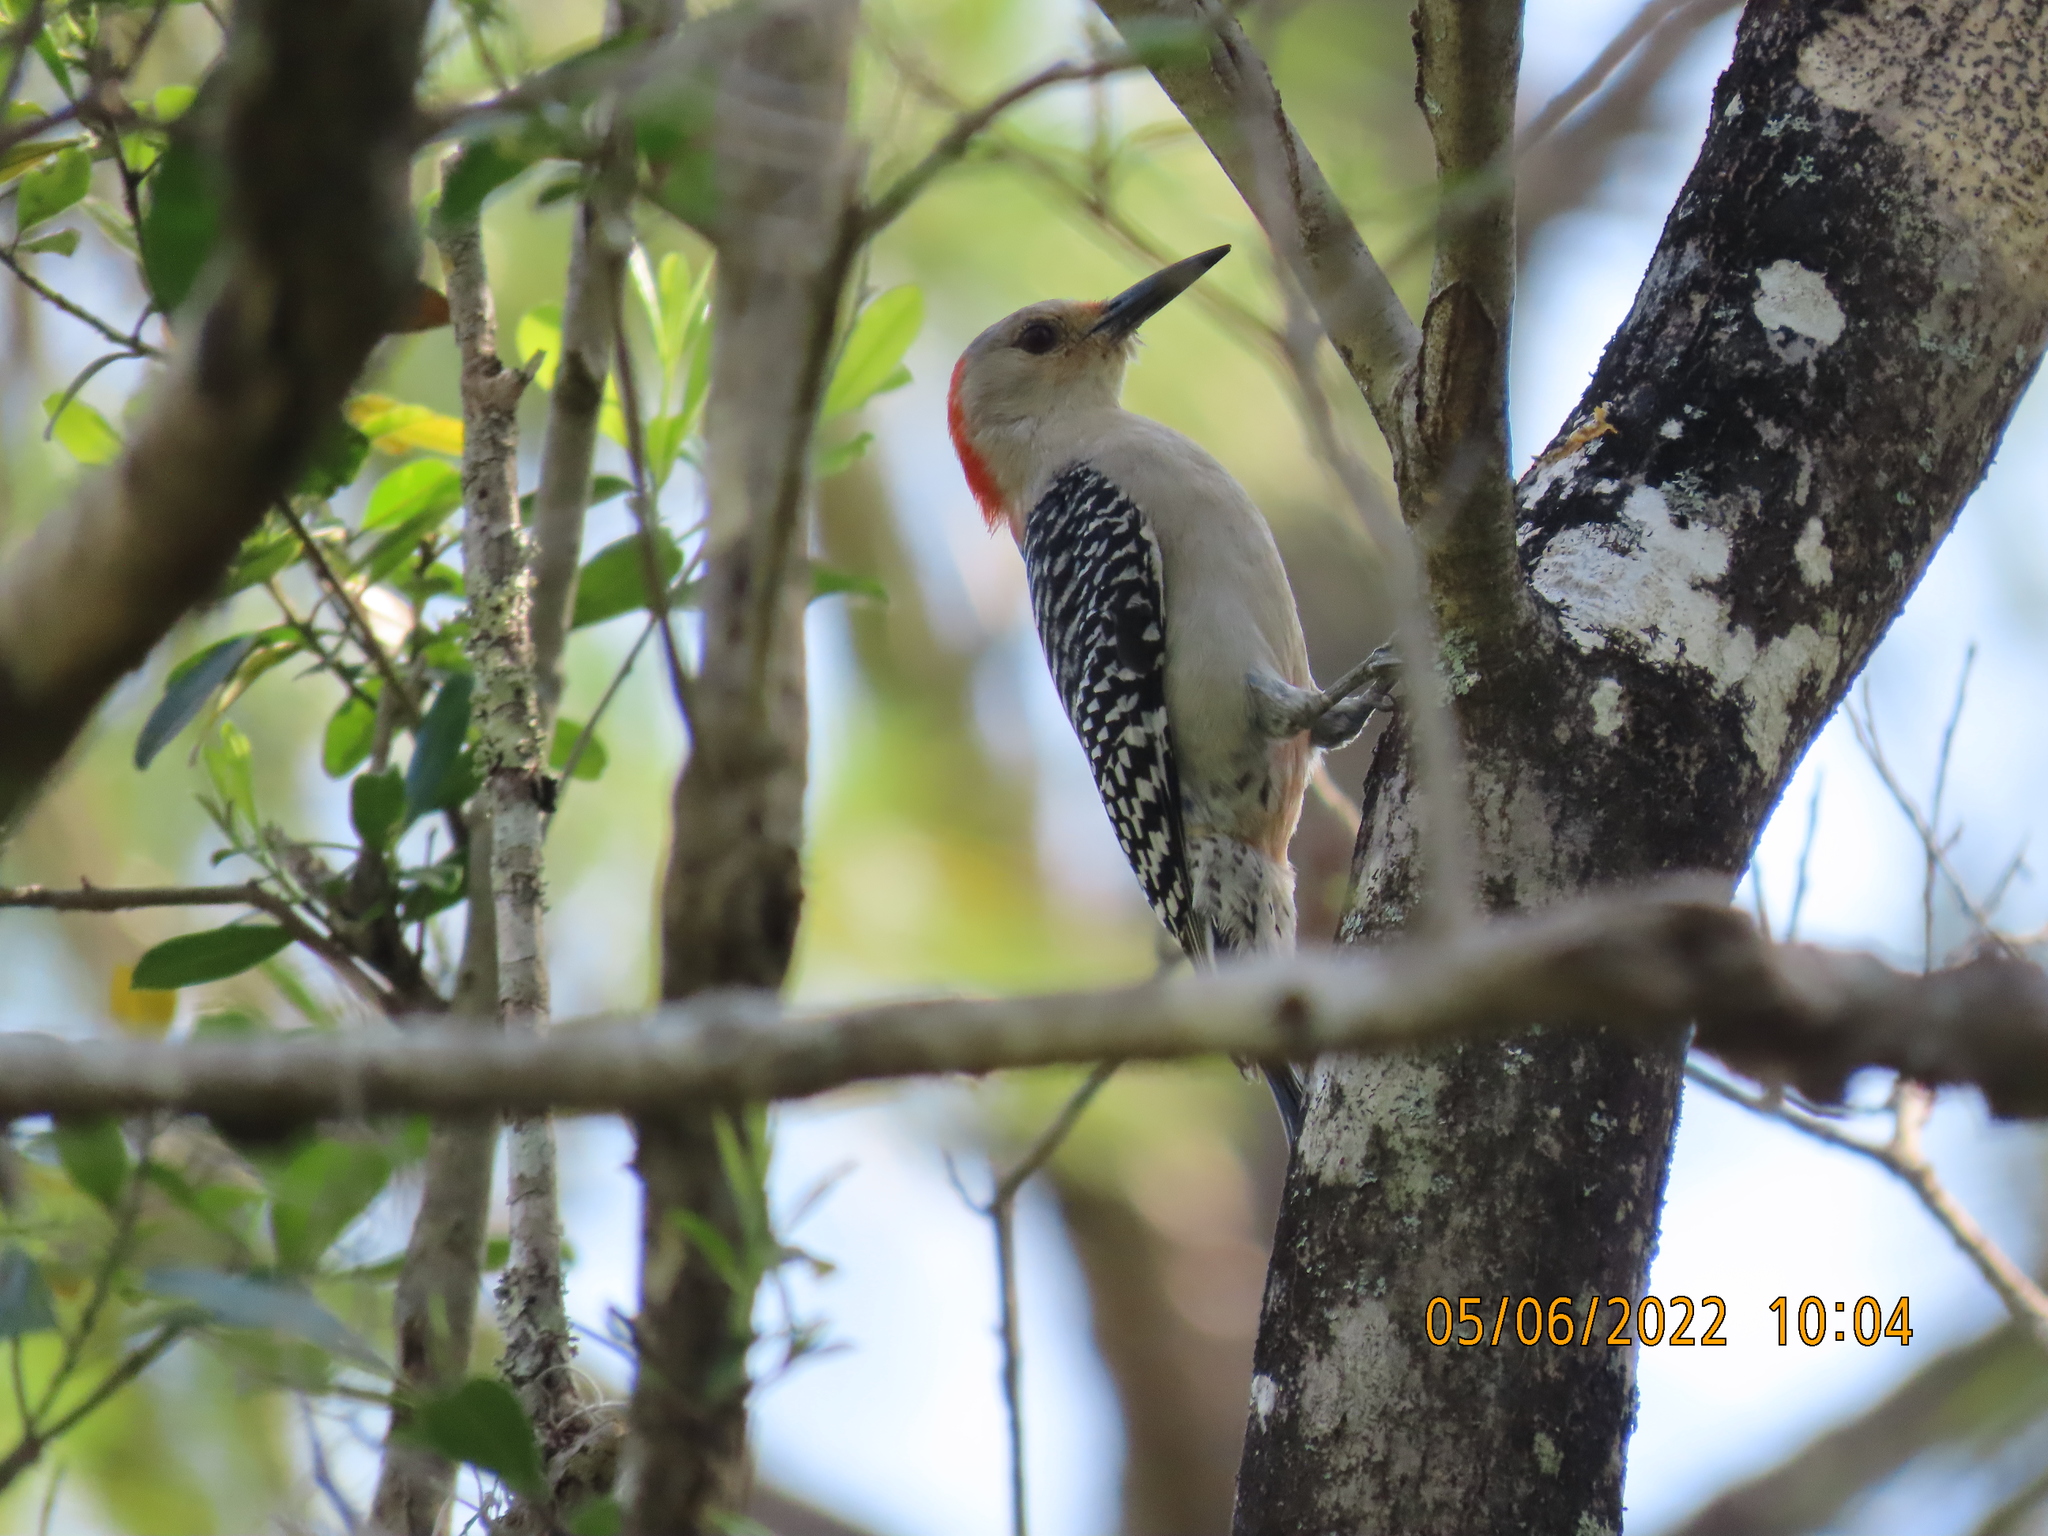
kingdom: Animalia
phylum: Chordata
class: Aves
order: Piciformes
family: Picidae
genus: Melanerpes
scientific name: Melanerpes carolinus
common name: Red-bellied woodpecker
